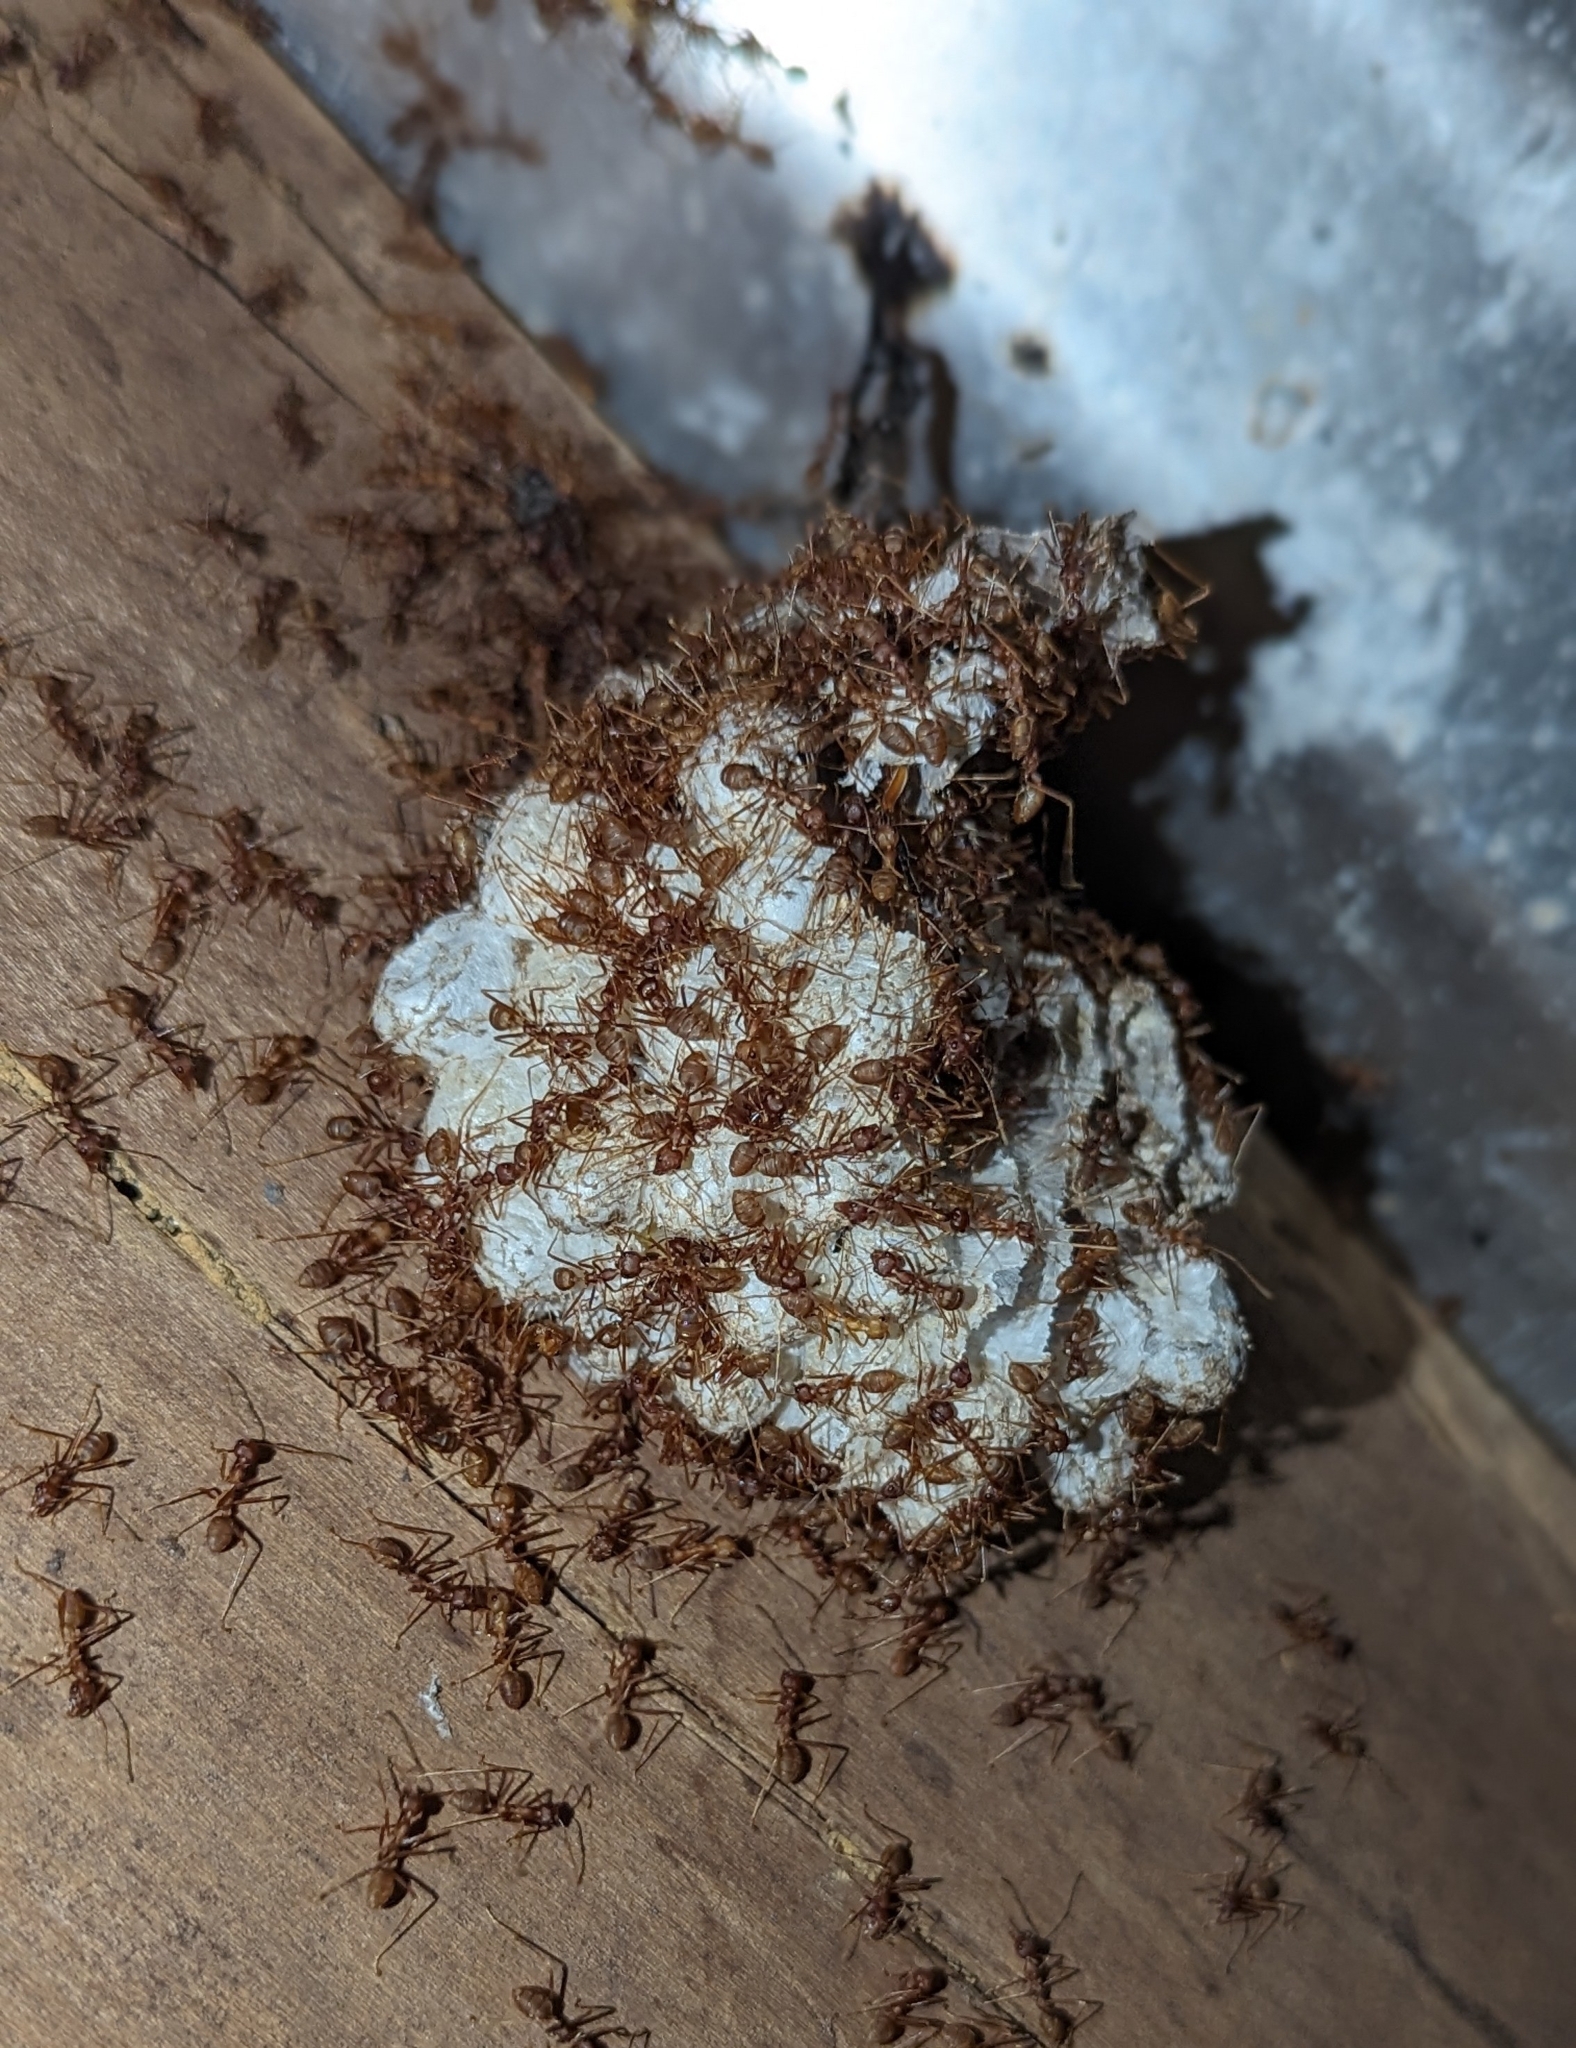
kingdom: Animalia
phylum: Arthropoda
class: Insecta
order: Hymenoptera
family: Formicidae
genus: Oecophylla
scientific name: Oecophylla longinoda
